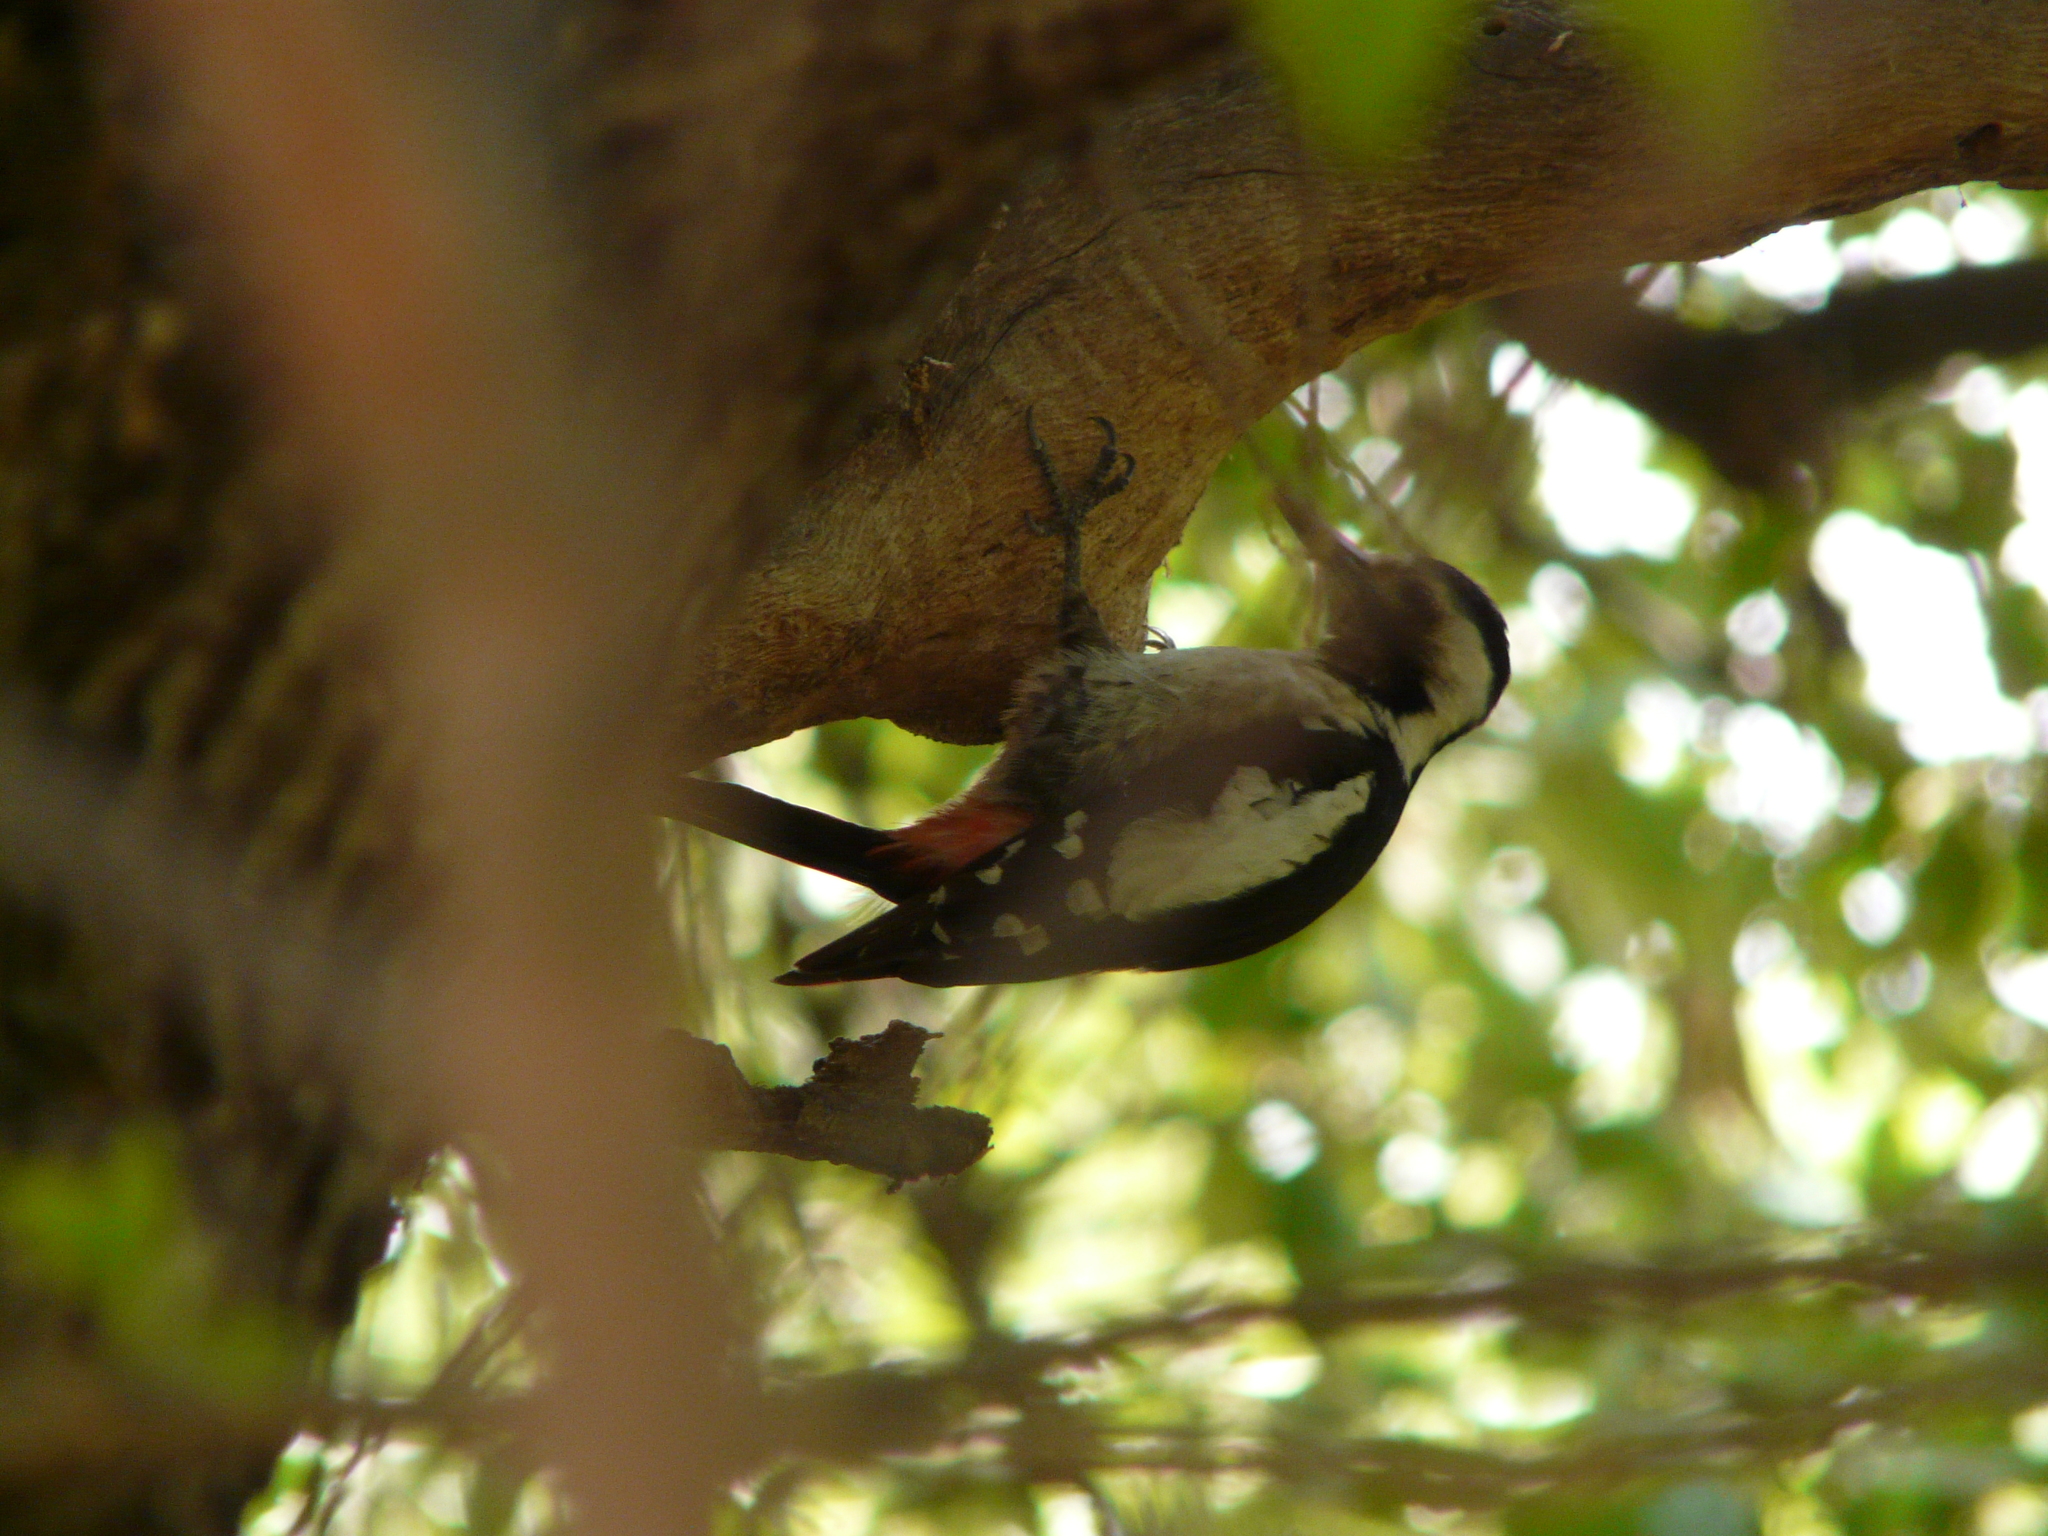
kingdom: Animalia
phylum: Chordata
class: Aves
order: Piciformes
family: Picidae
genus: Dendrocopos
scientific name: Dendrocopos syriacus
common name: Syrian woodpecker
